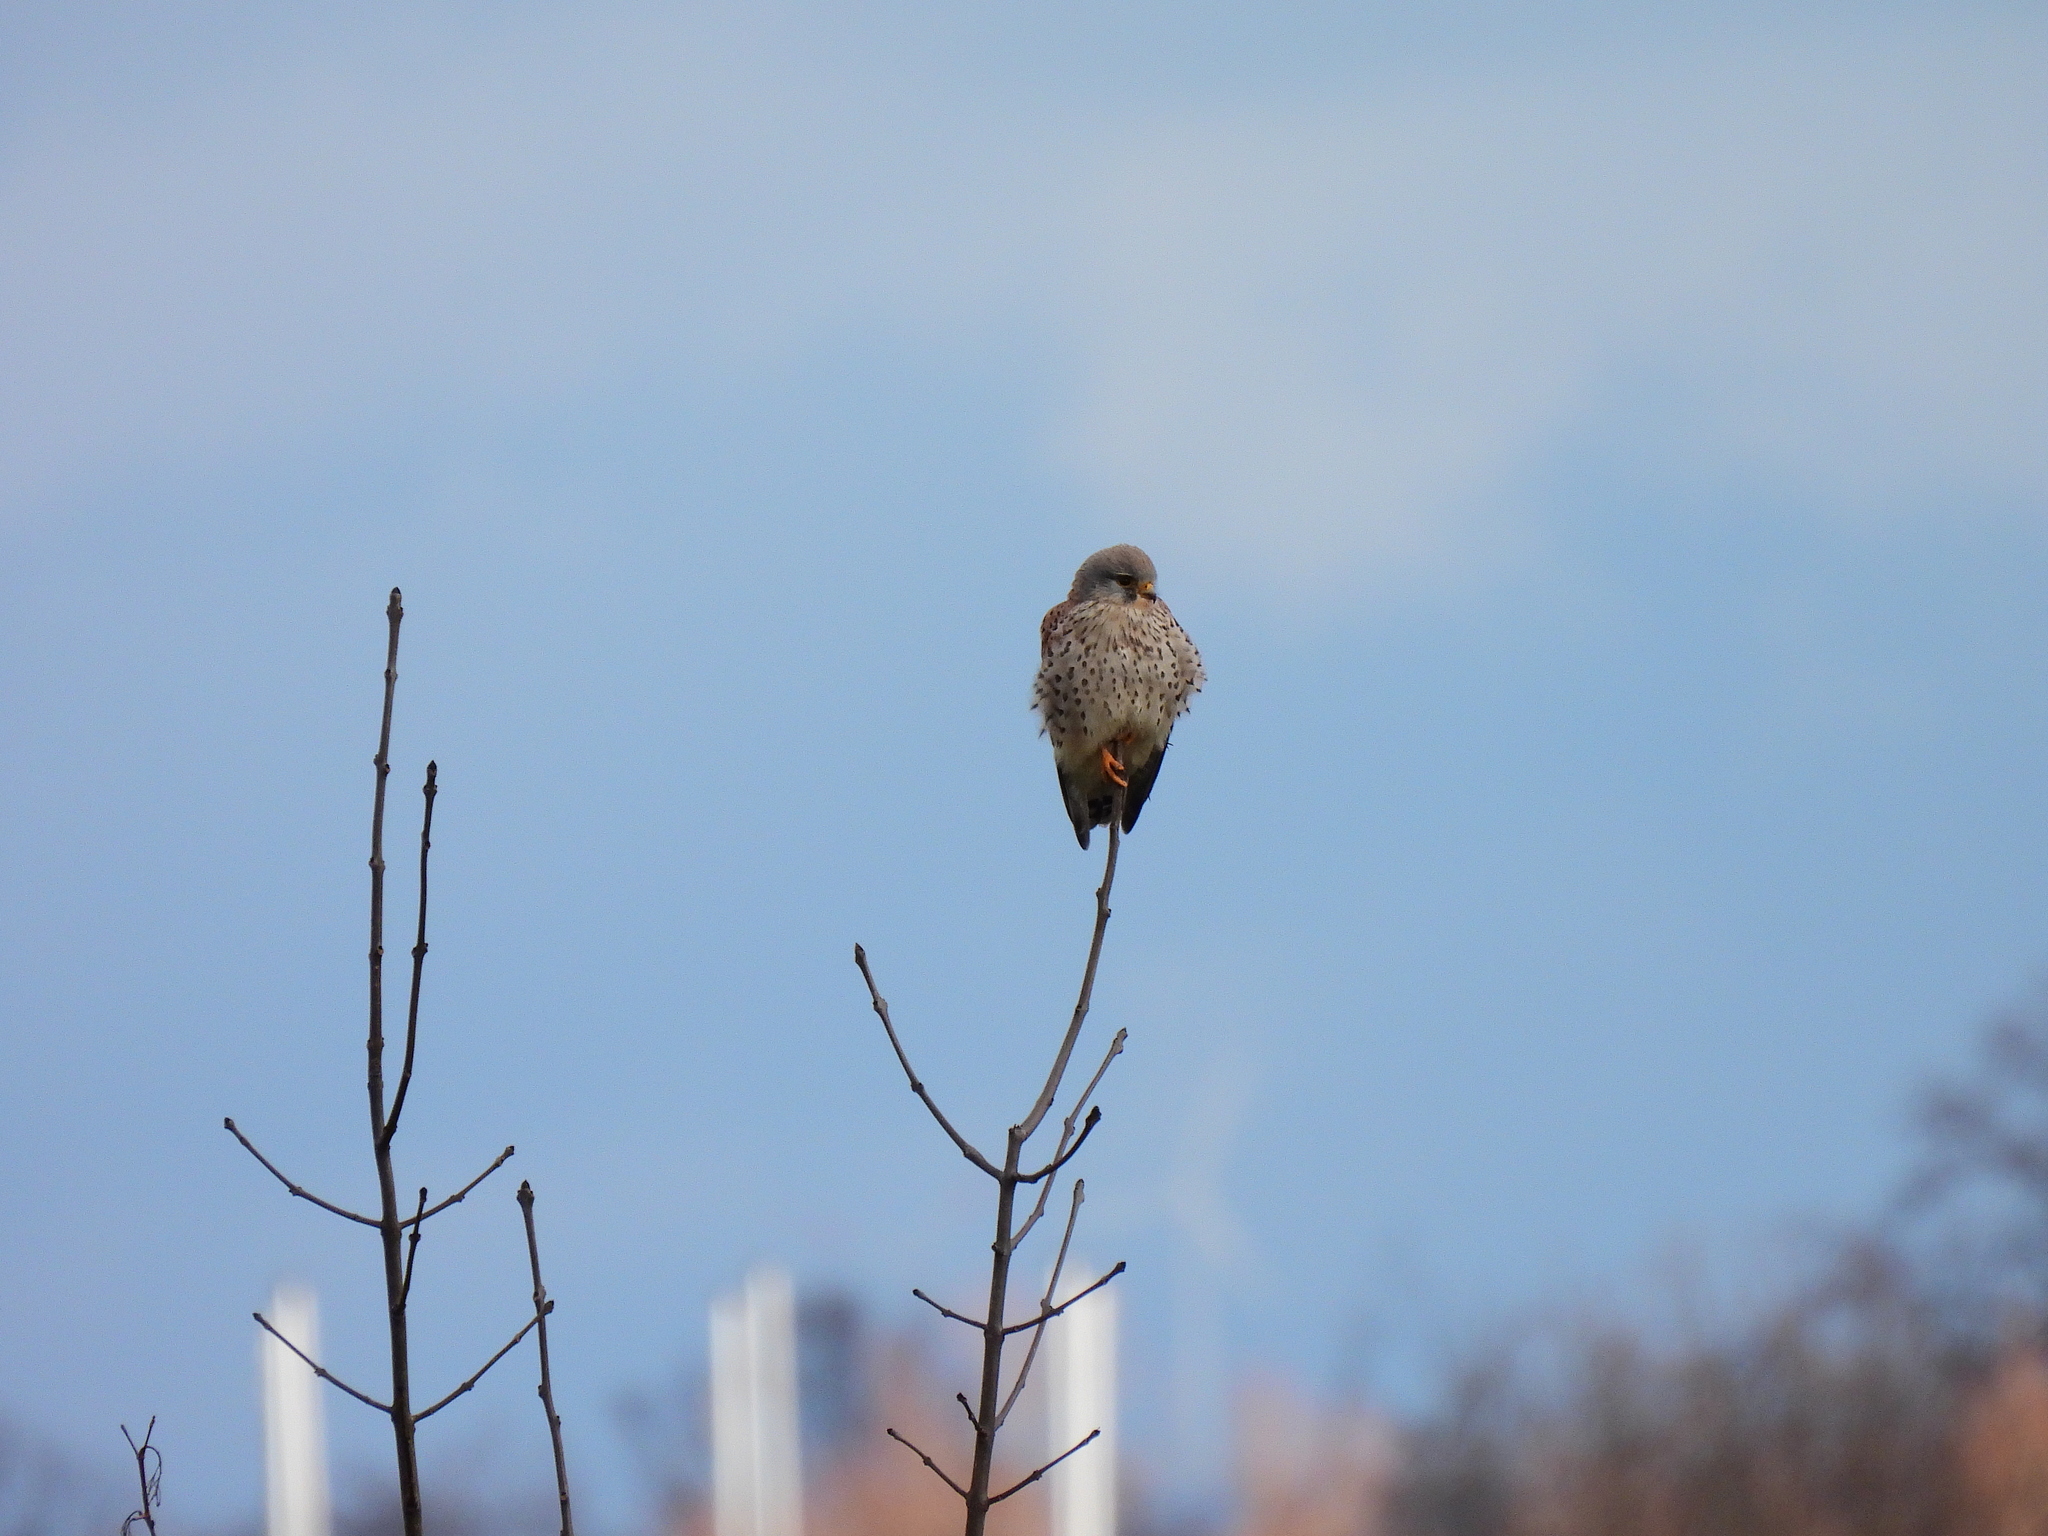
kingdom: Animalia
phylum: Chordata
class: Aves
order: Falconiformes
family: Falconidae
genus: Falco
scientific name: Falco tinnunculus
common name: Common kestrel
